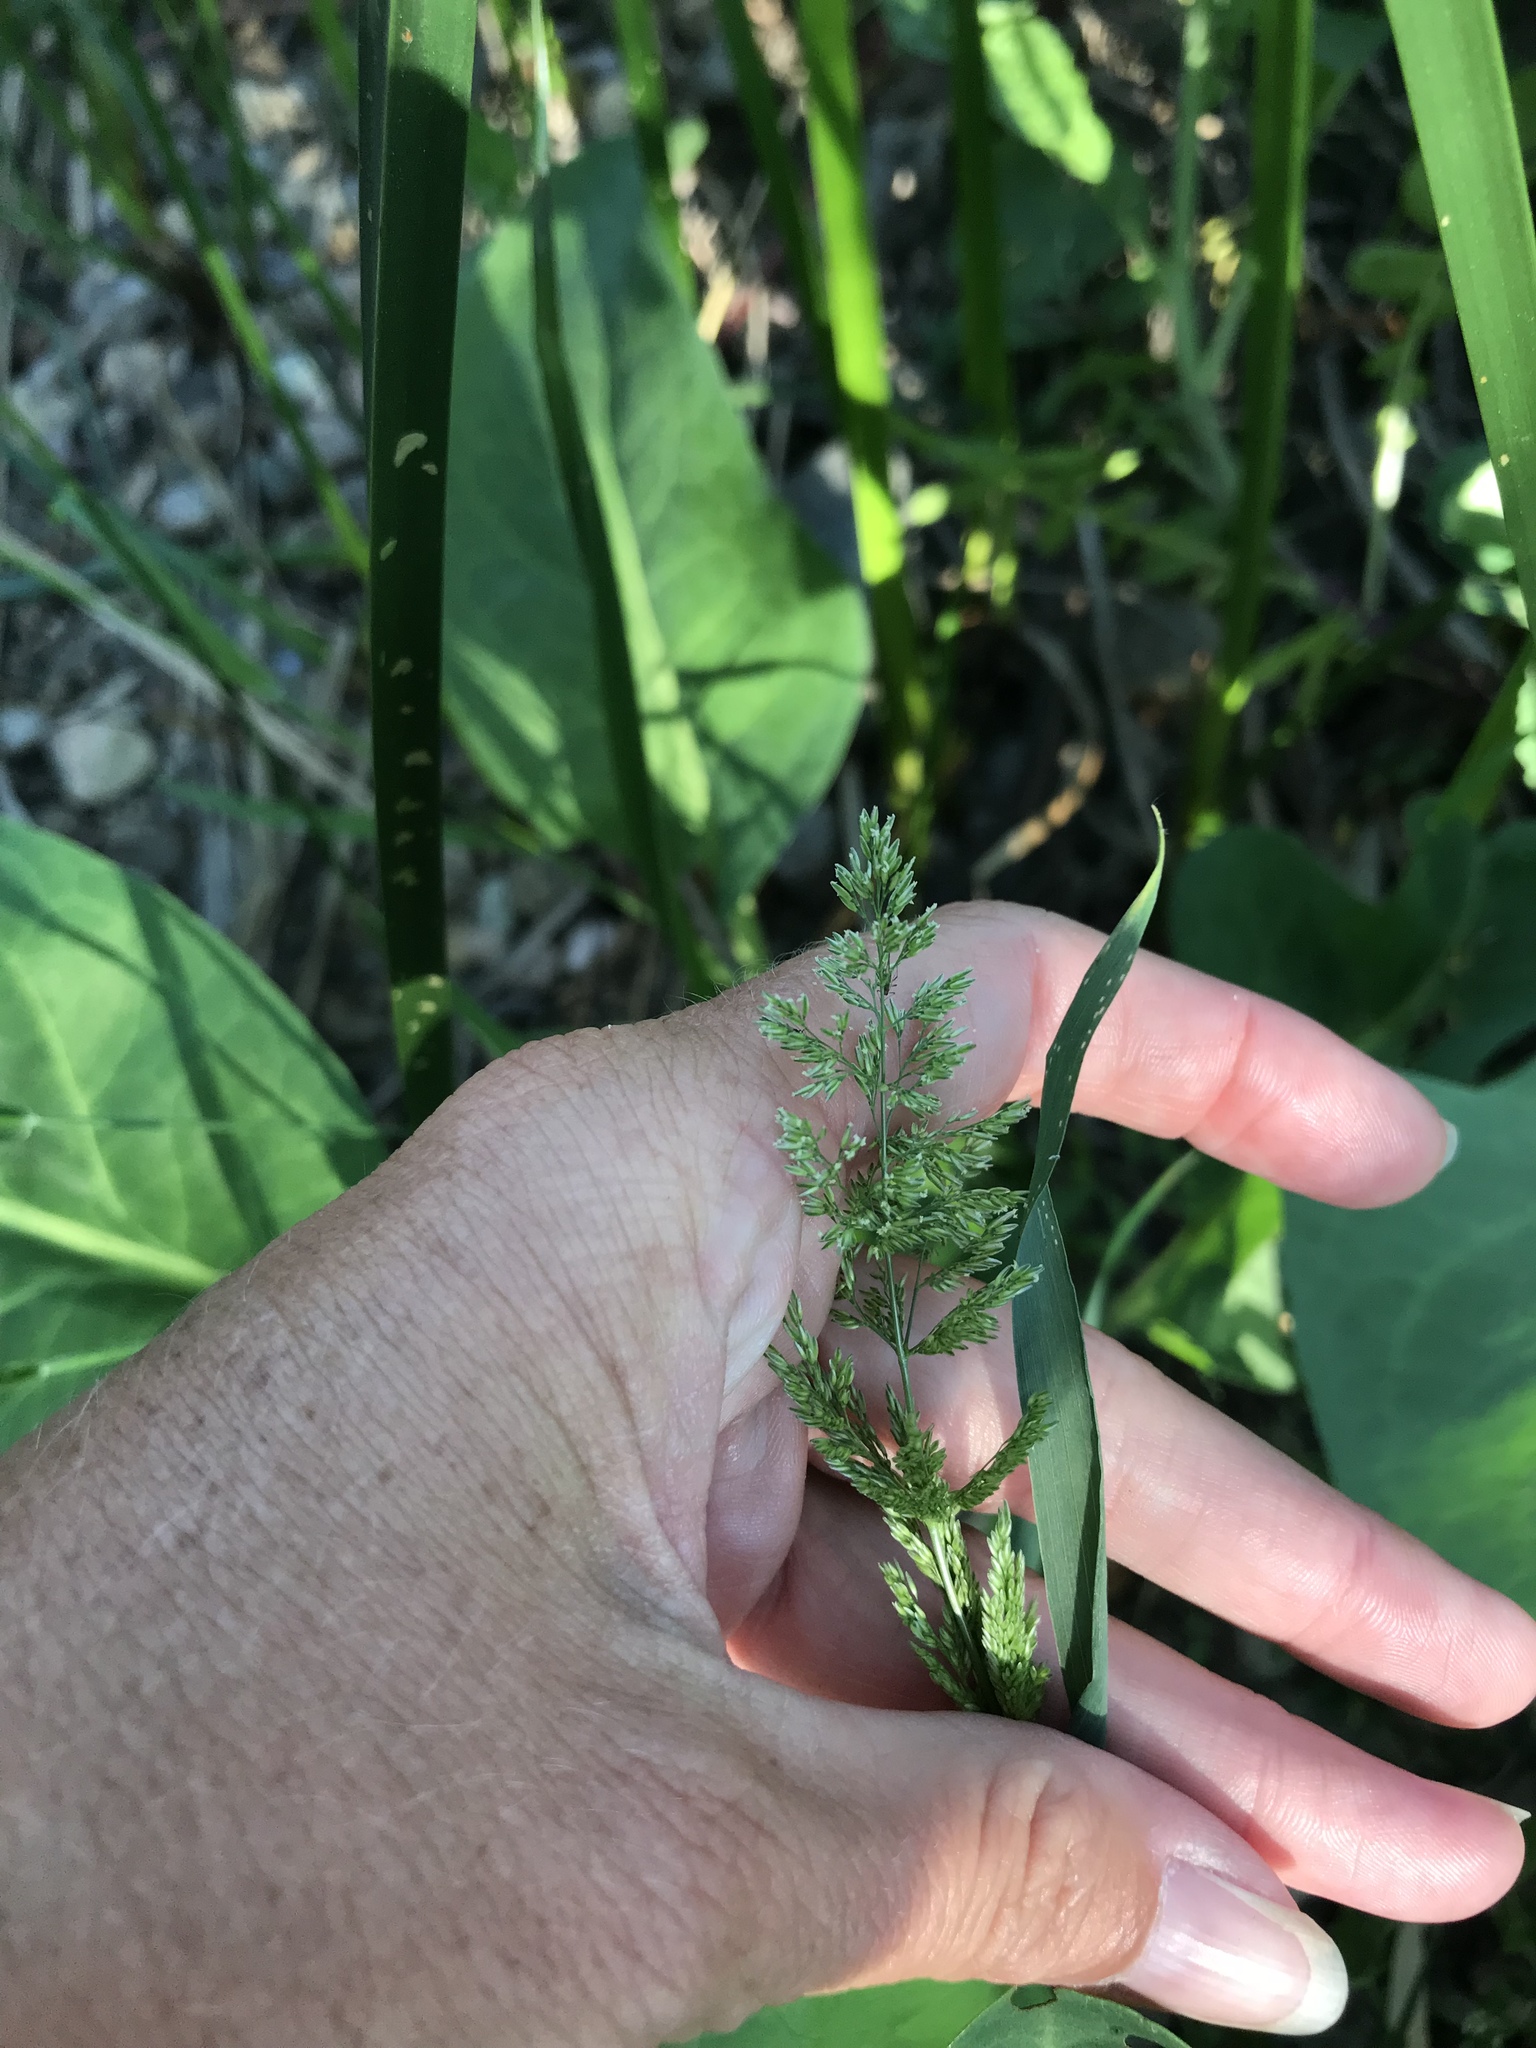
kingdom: Plantae
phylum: Tracheophyta
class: Liliopsida
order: Poales
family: Poaceae
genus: Polypogon
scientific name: Polypogon viridis
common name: Water bent
